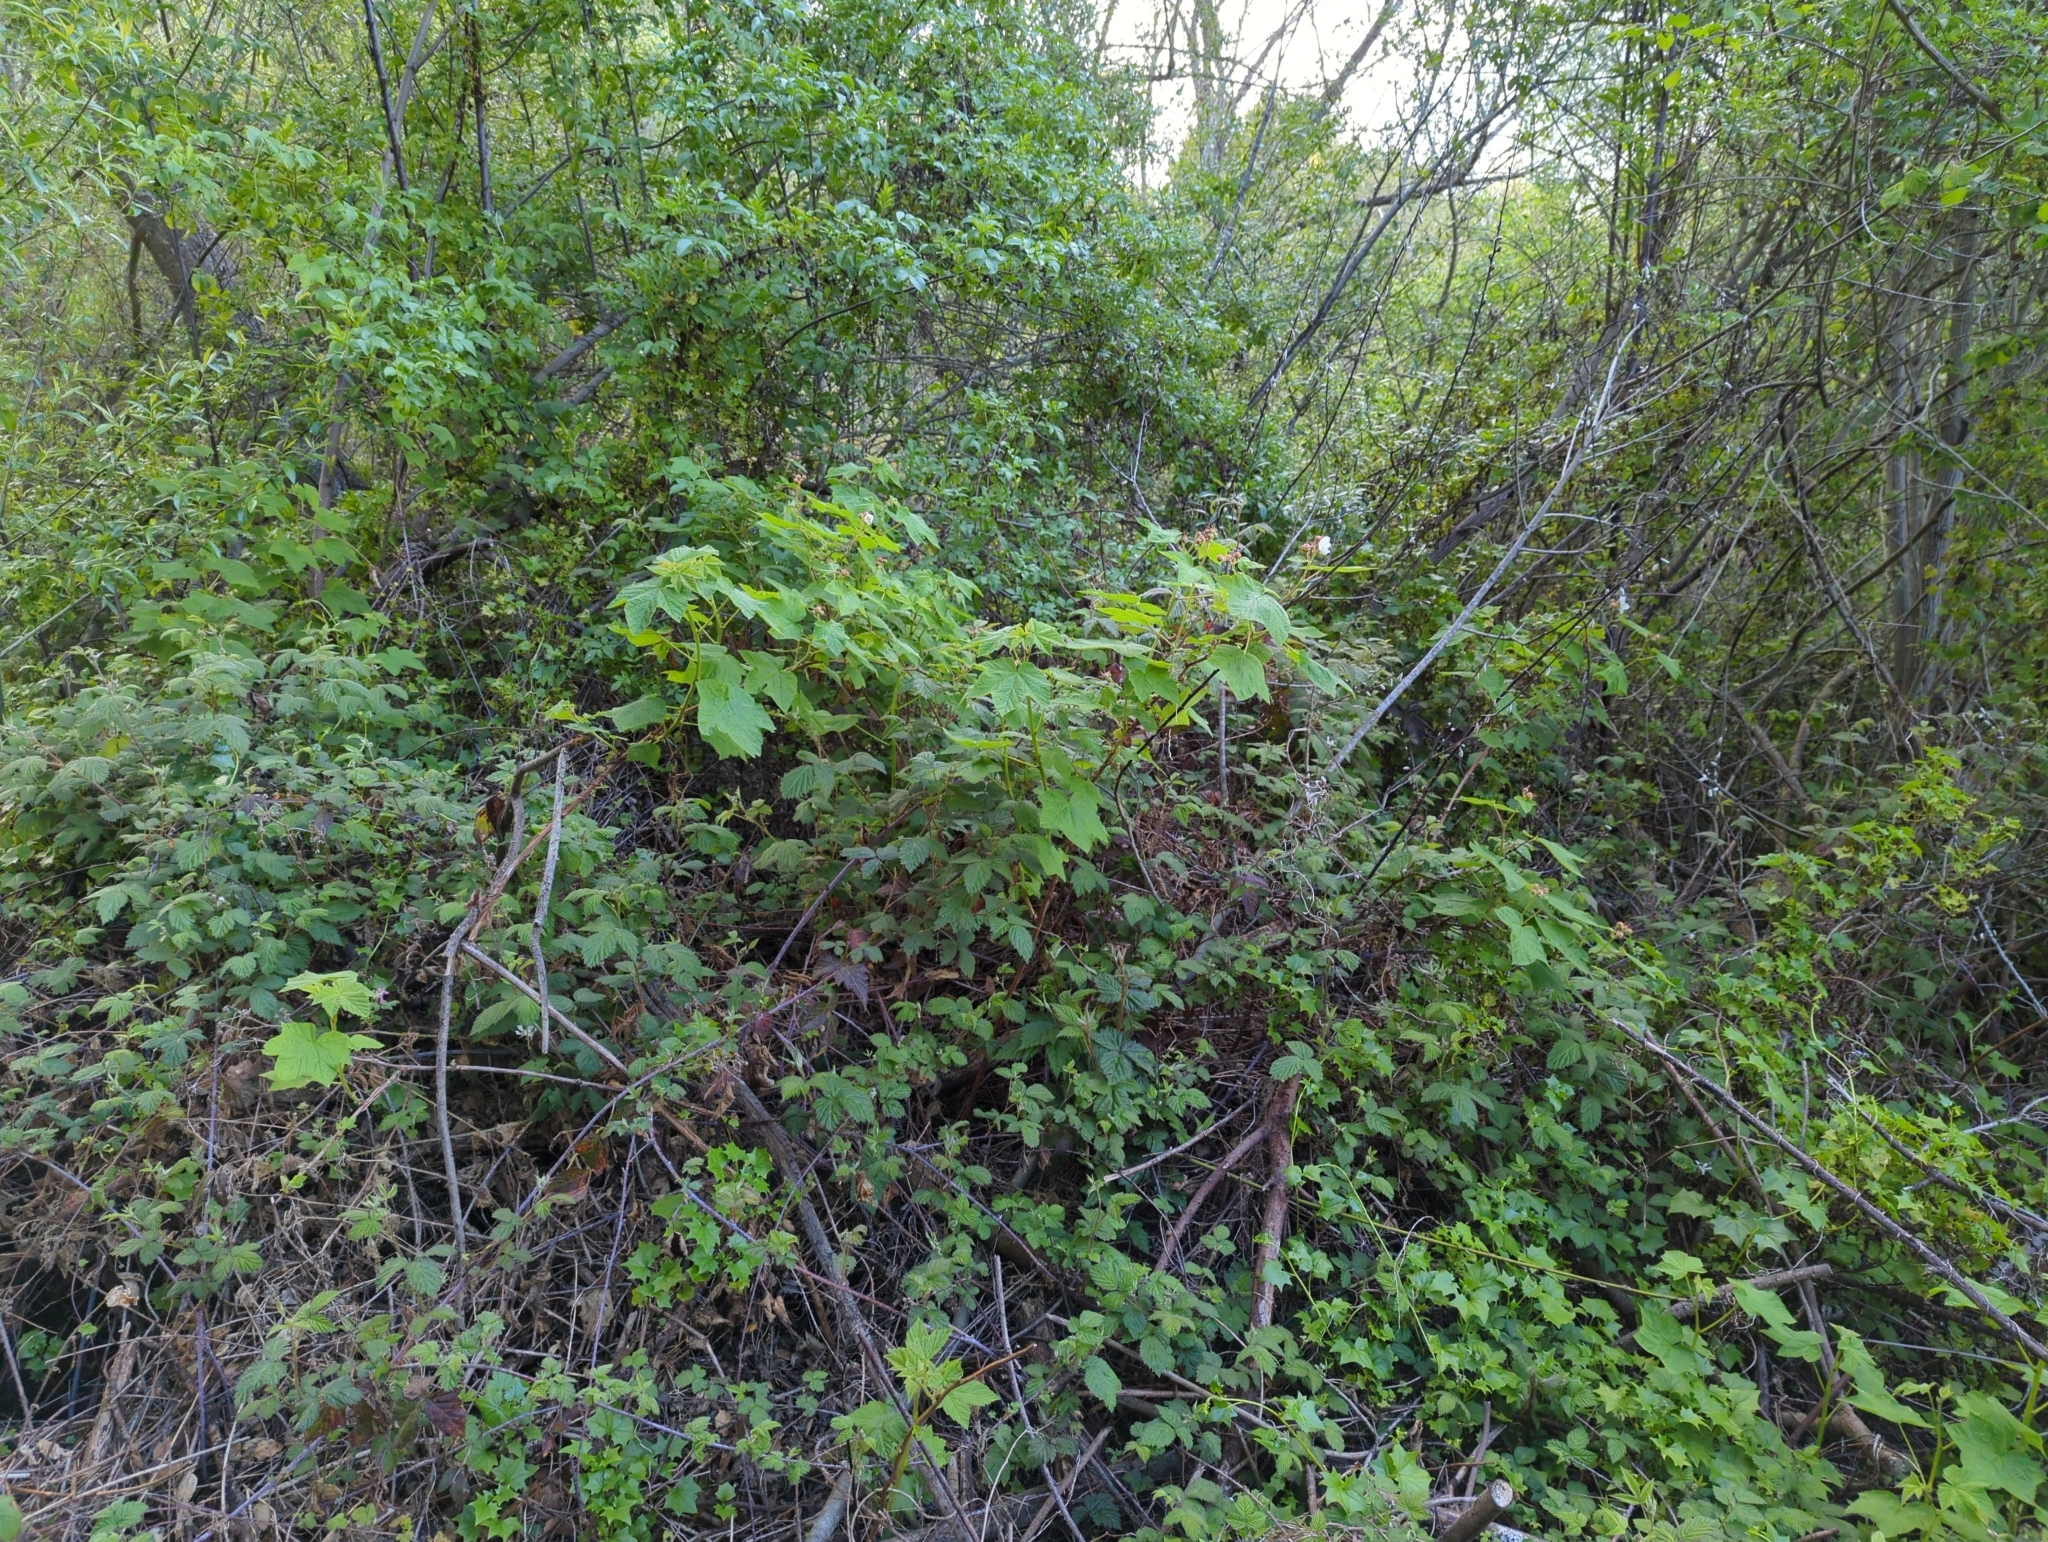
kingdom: Plantae
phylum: Tracheophyta
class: Magnoliopsida
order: Rosales
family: Rosaceae
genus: Rubus
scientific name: Rubus parviflorus
